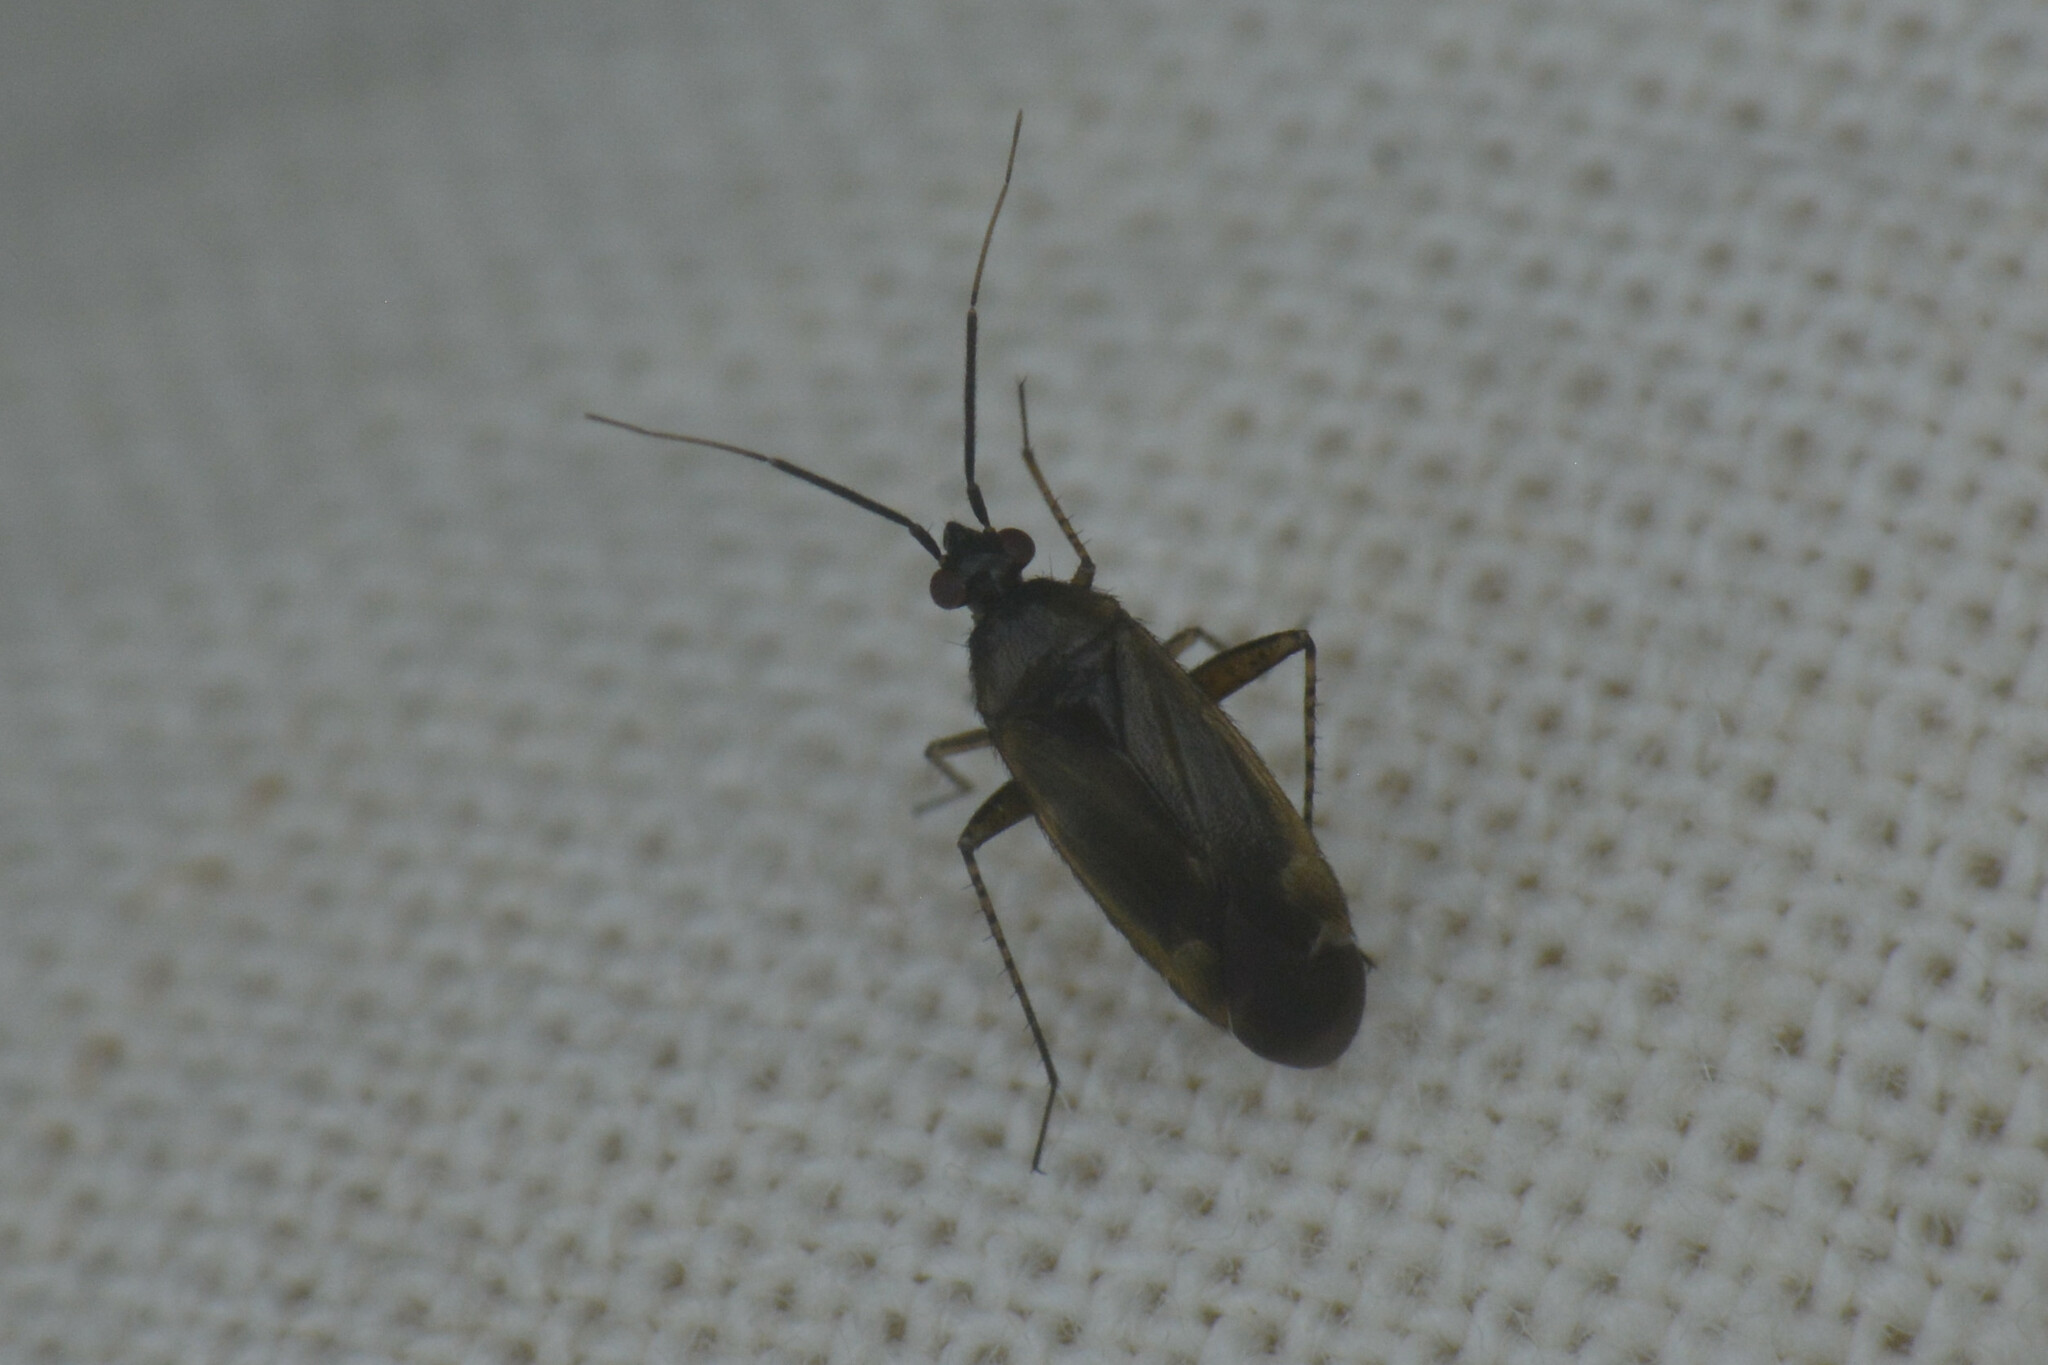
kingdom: Animalia
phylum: Arthropoda
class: Insecta
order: Hemiptera
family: Miridae
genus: Plagiognathus
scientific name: Plagiognathus arbustorum
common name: Plant bug
